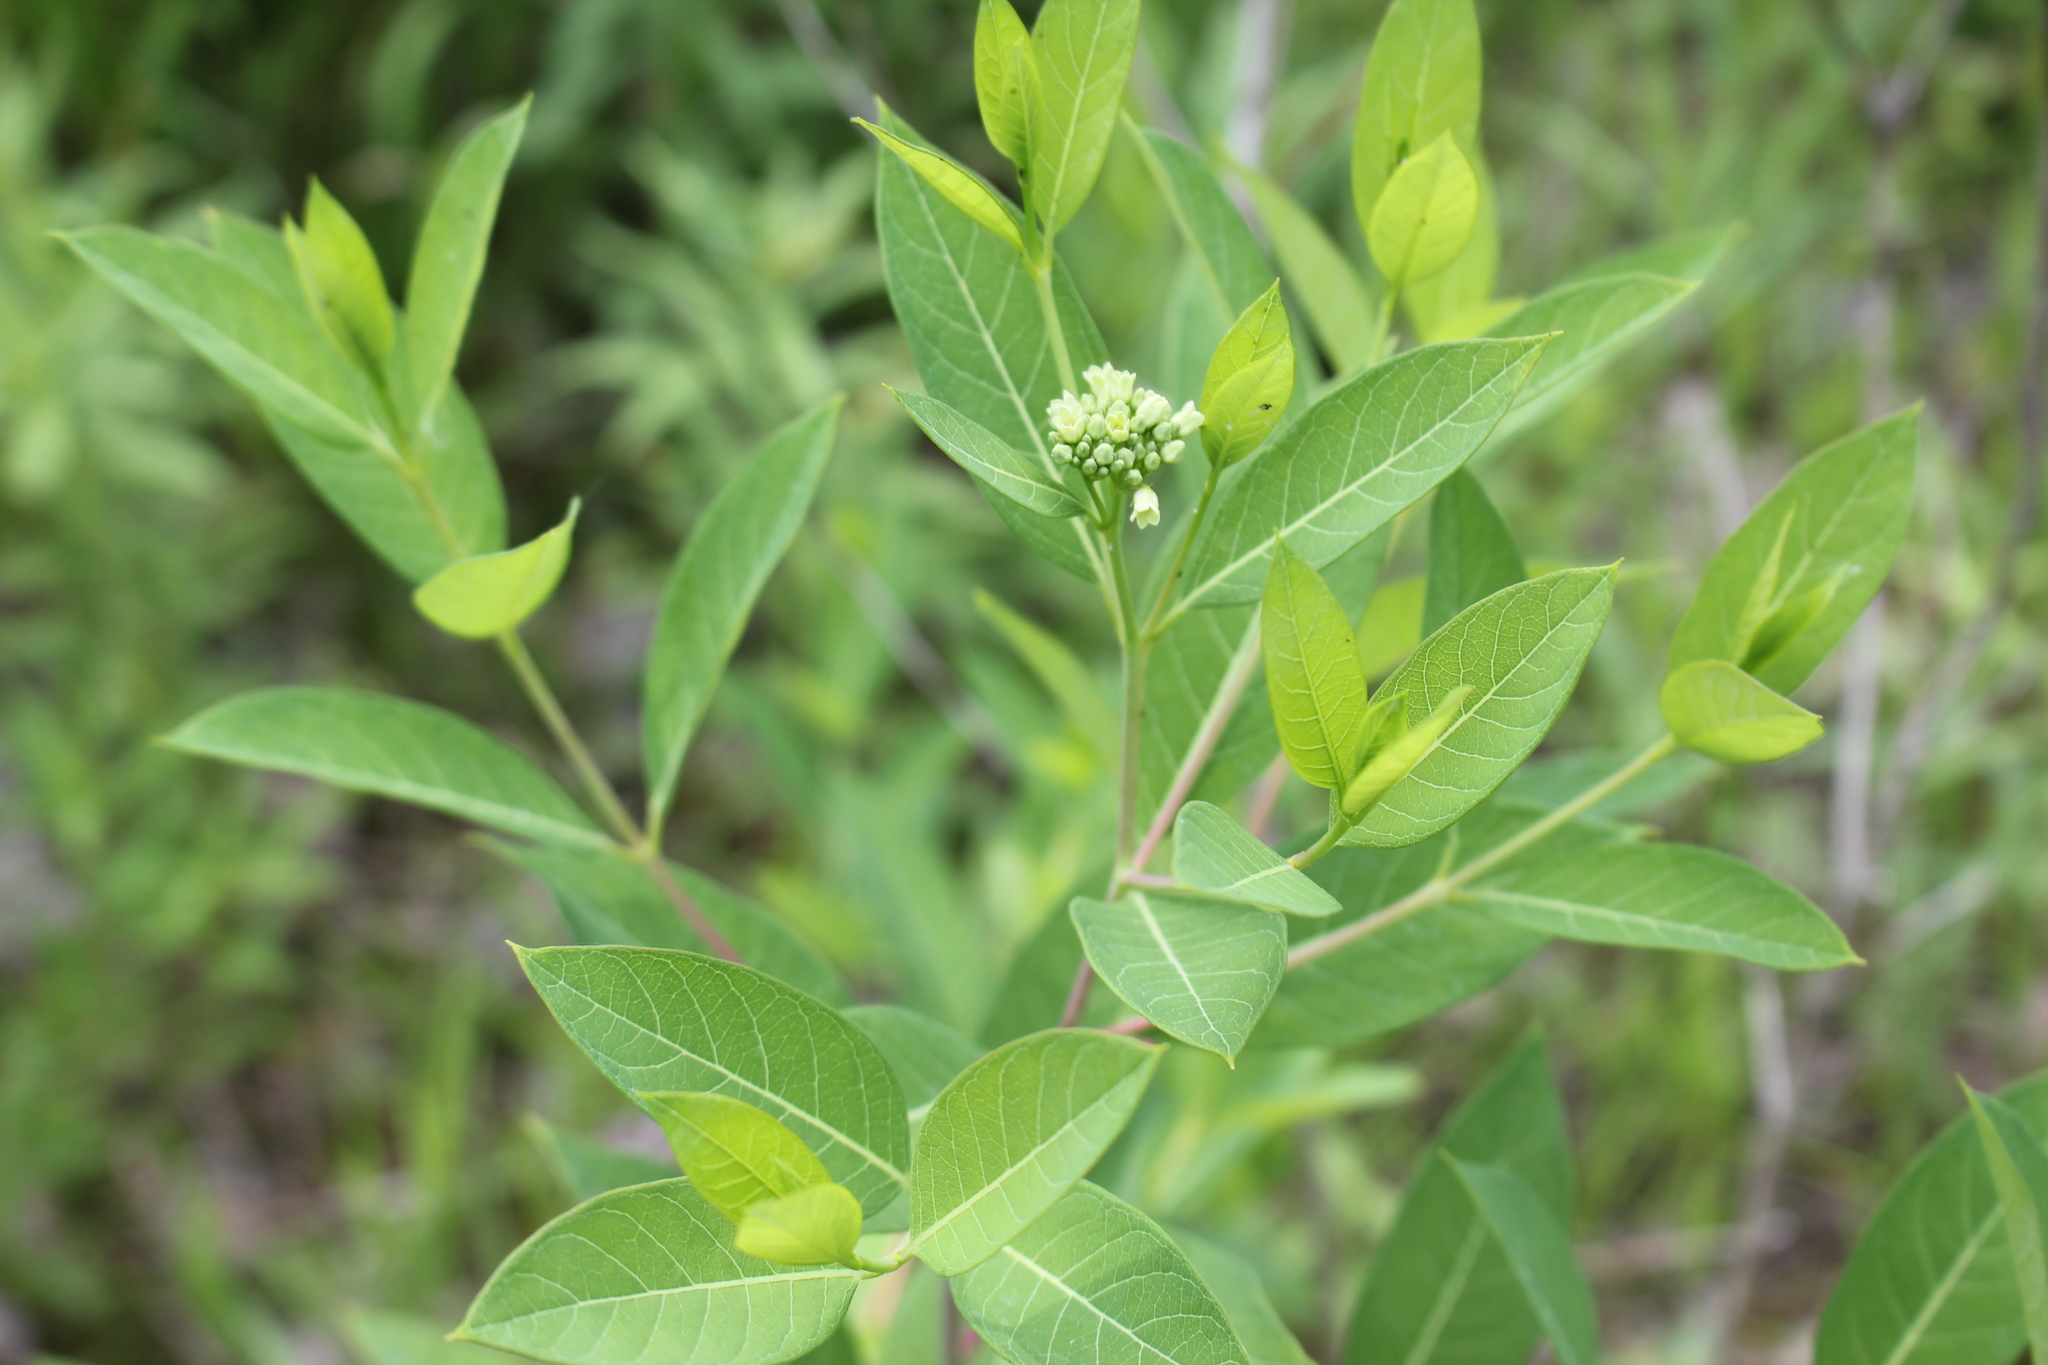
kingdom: Plantae
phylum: Tracheophyta
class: Magnoliopsida
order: Gentianales
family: Apocynaceae
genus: Apocynum
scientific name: Apocynum cannabinum
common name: Hemp dogbane
